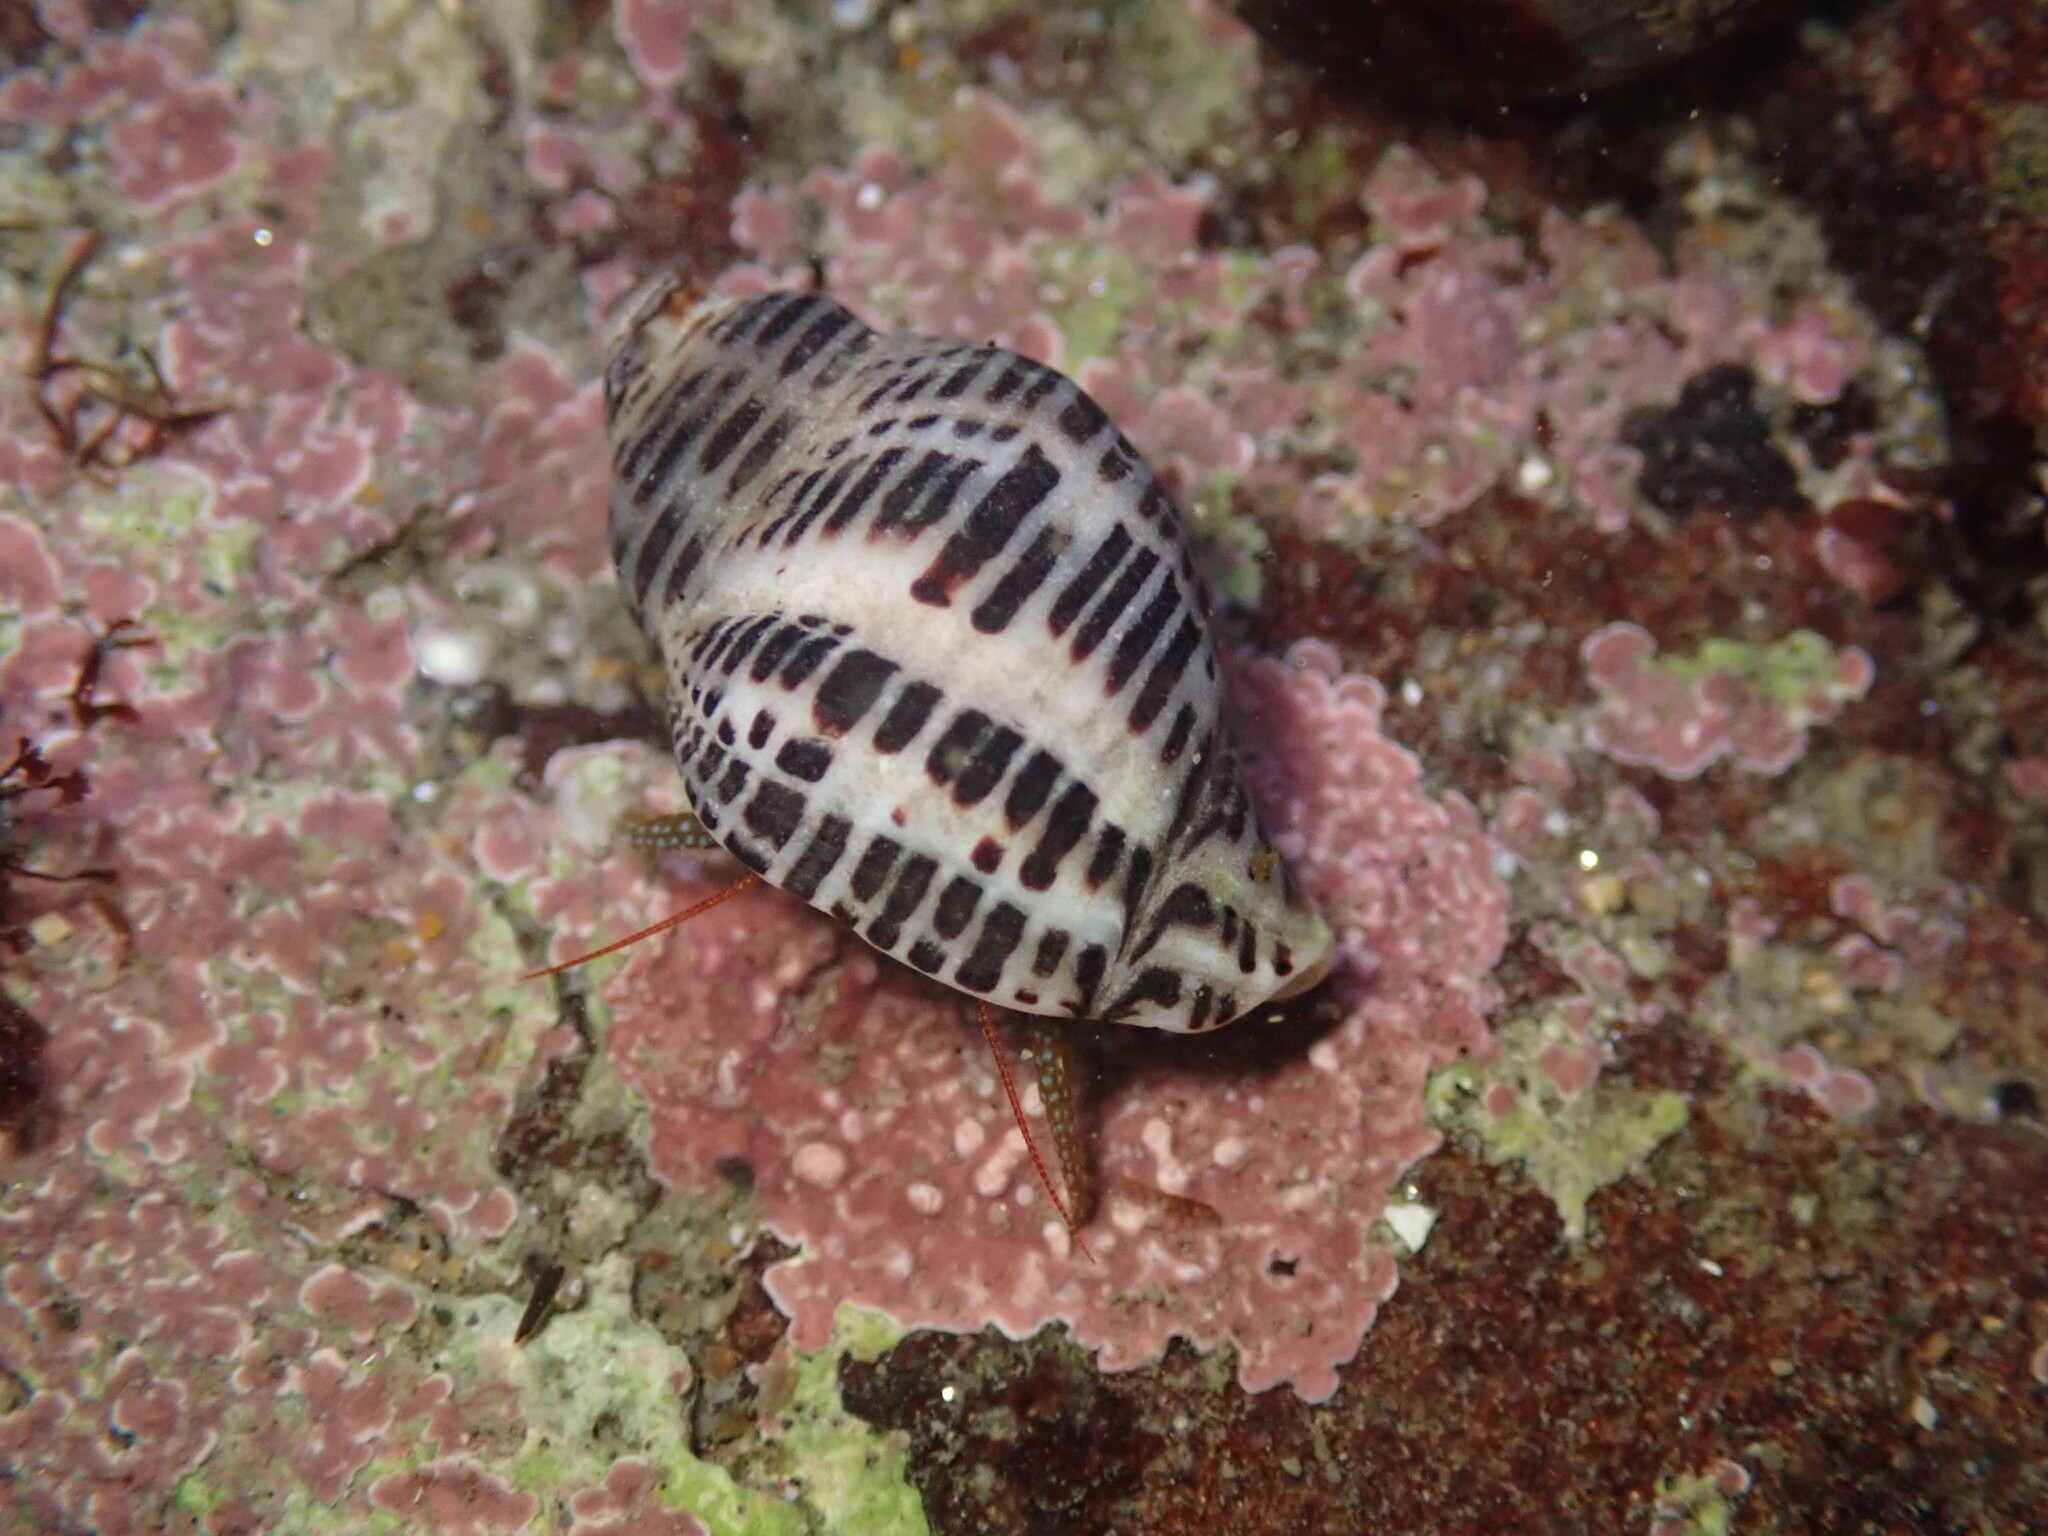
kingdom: Animalia
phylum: Mollusca
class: Gastropoda
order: Neogastropoda
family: Muricidae
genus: Acanthinucella
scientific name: Acanthinucella punctulata
